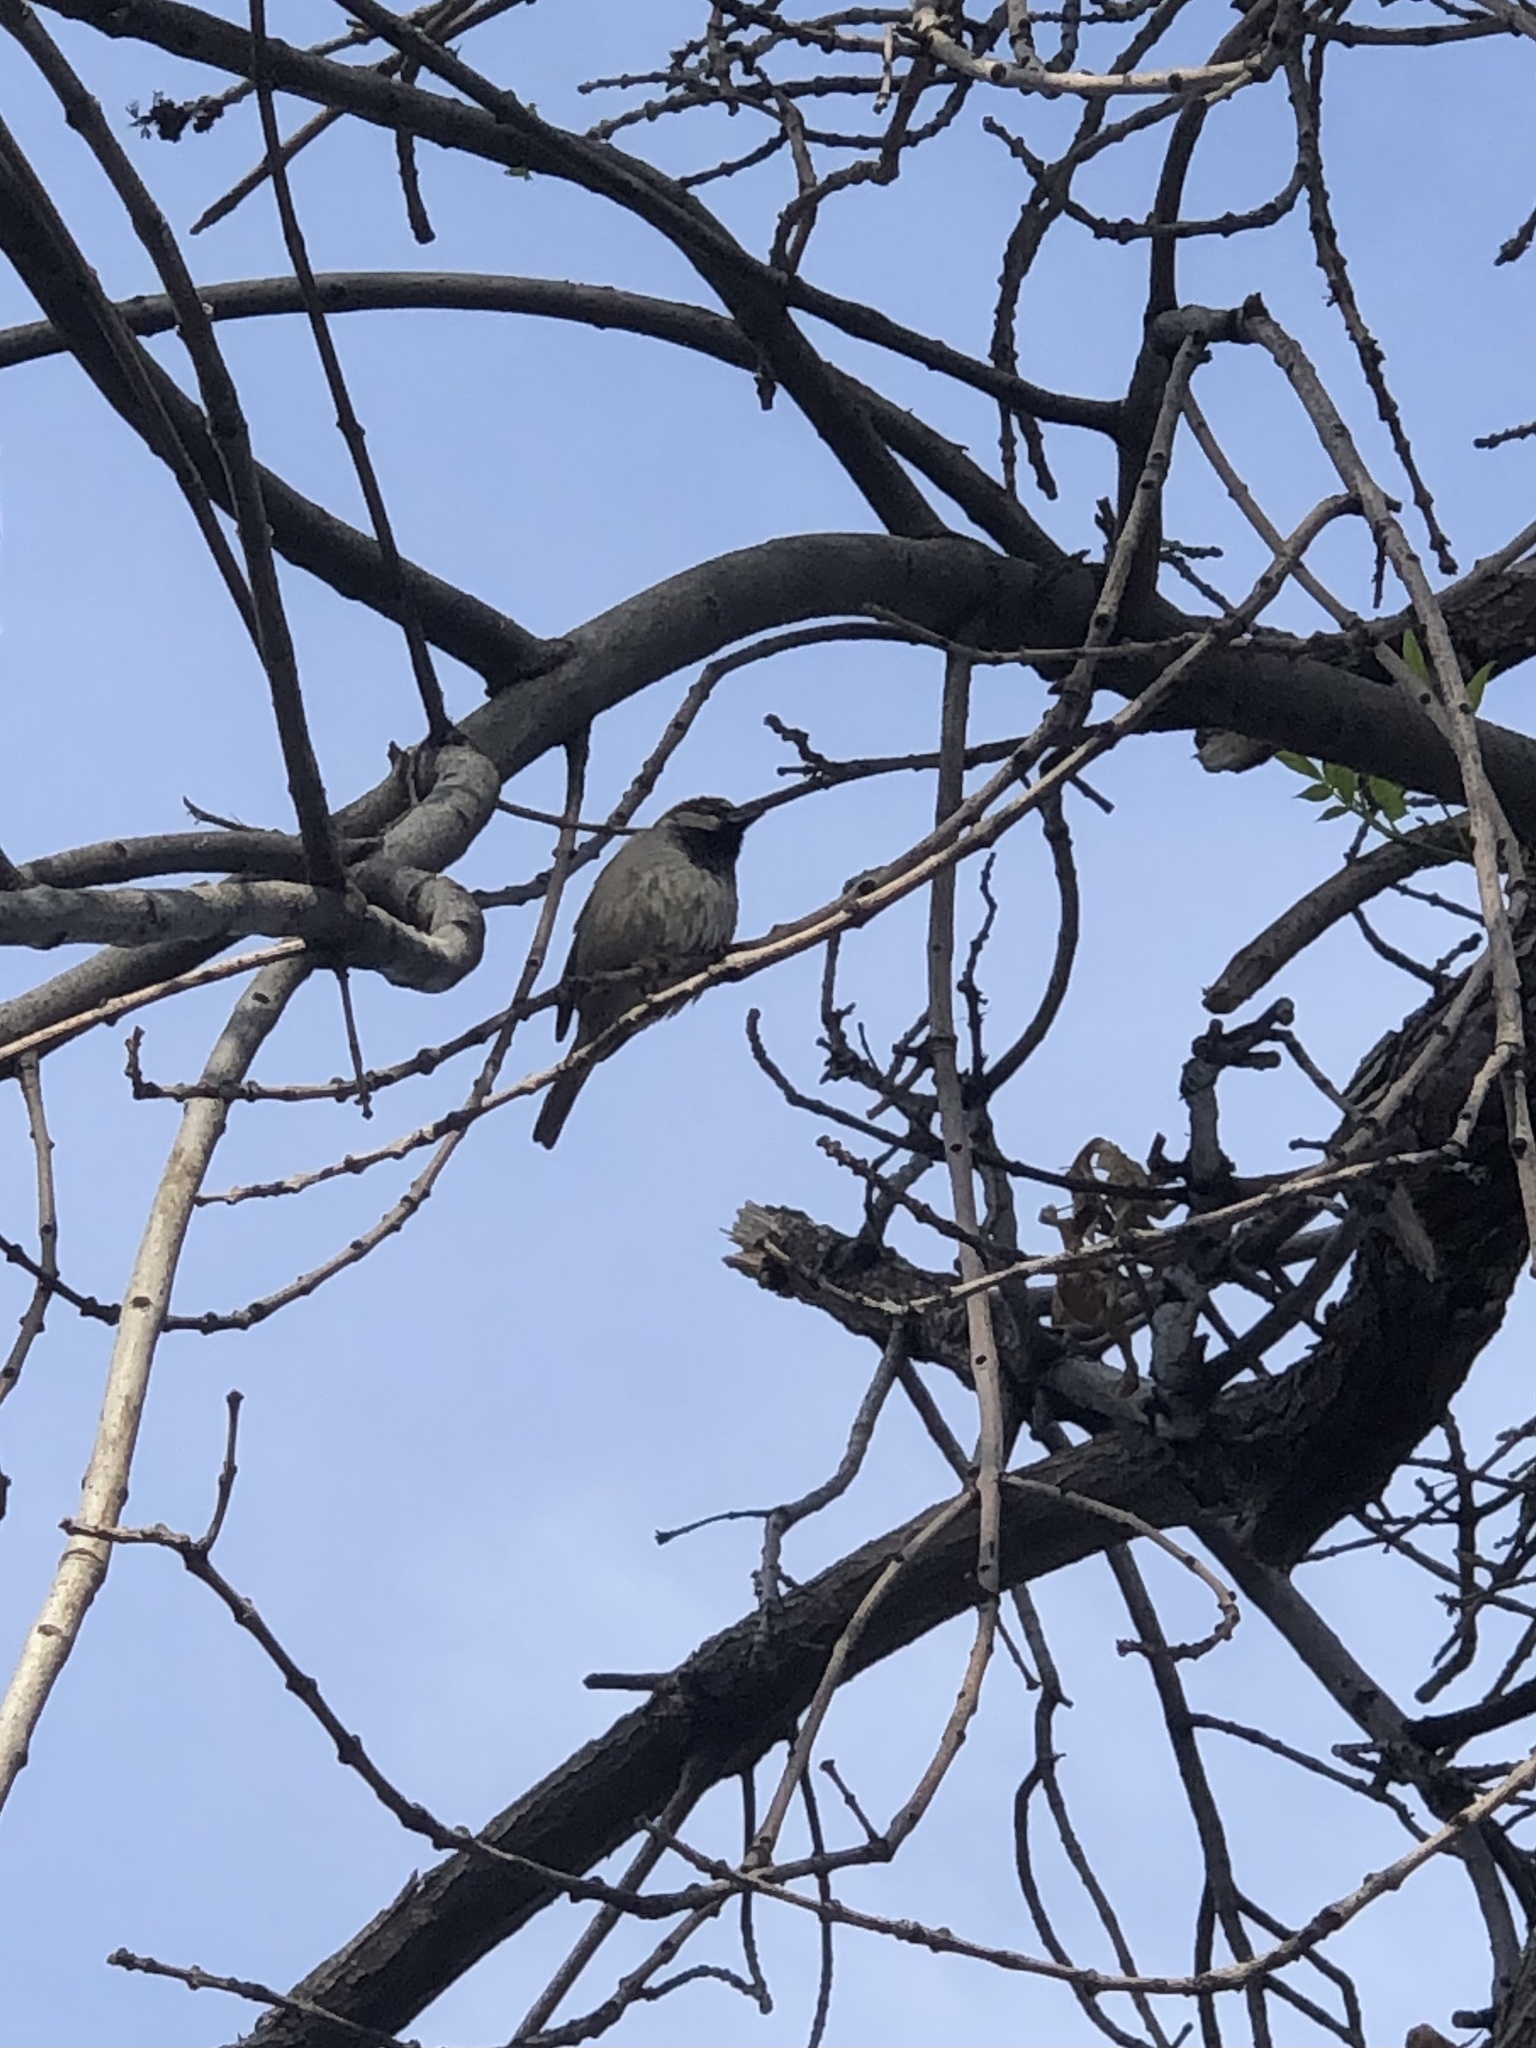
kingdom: Animalia
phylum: Chordata
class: Aves
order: Passeriformes
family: Passeridae
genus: Passer
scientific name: Passer domesticus
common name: House sparrow
